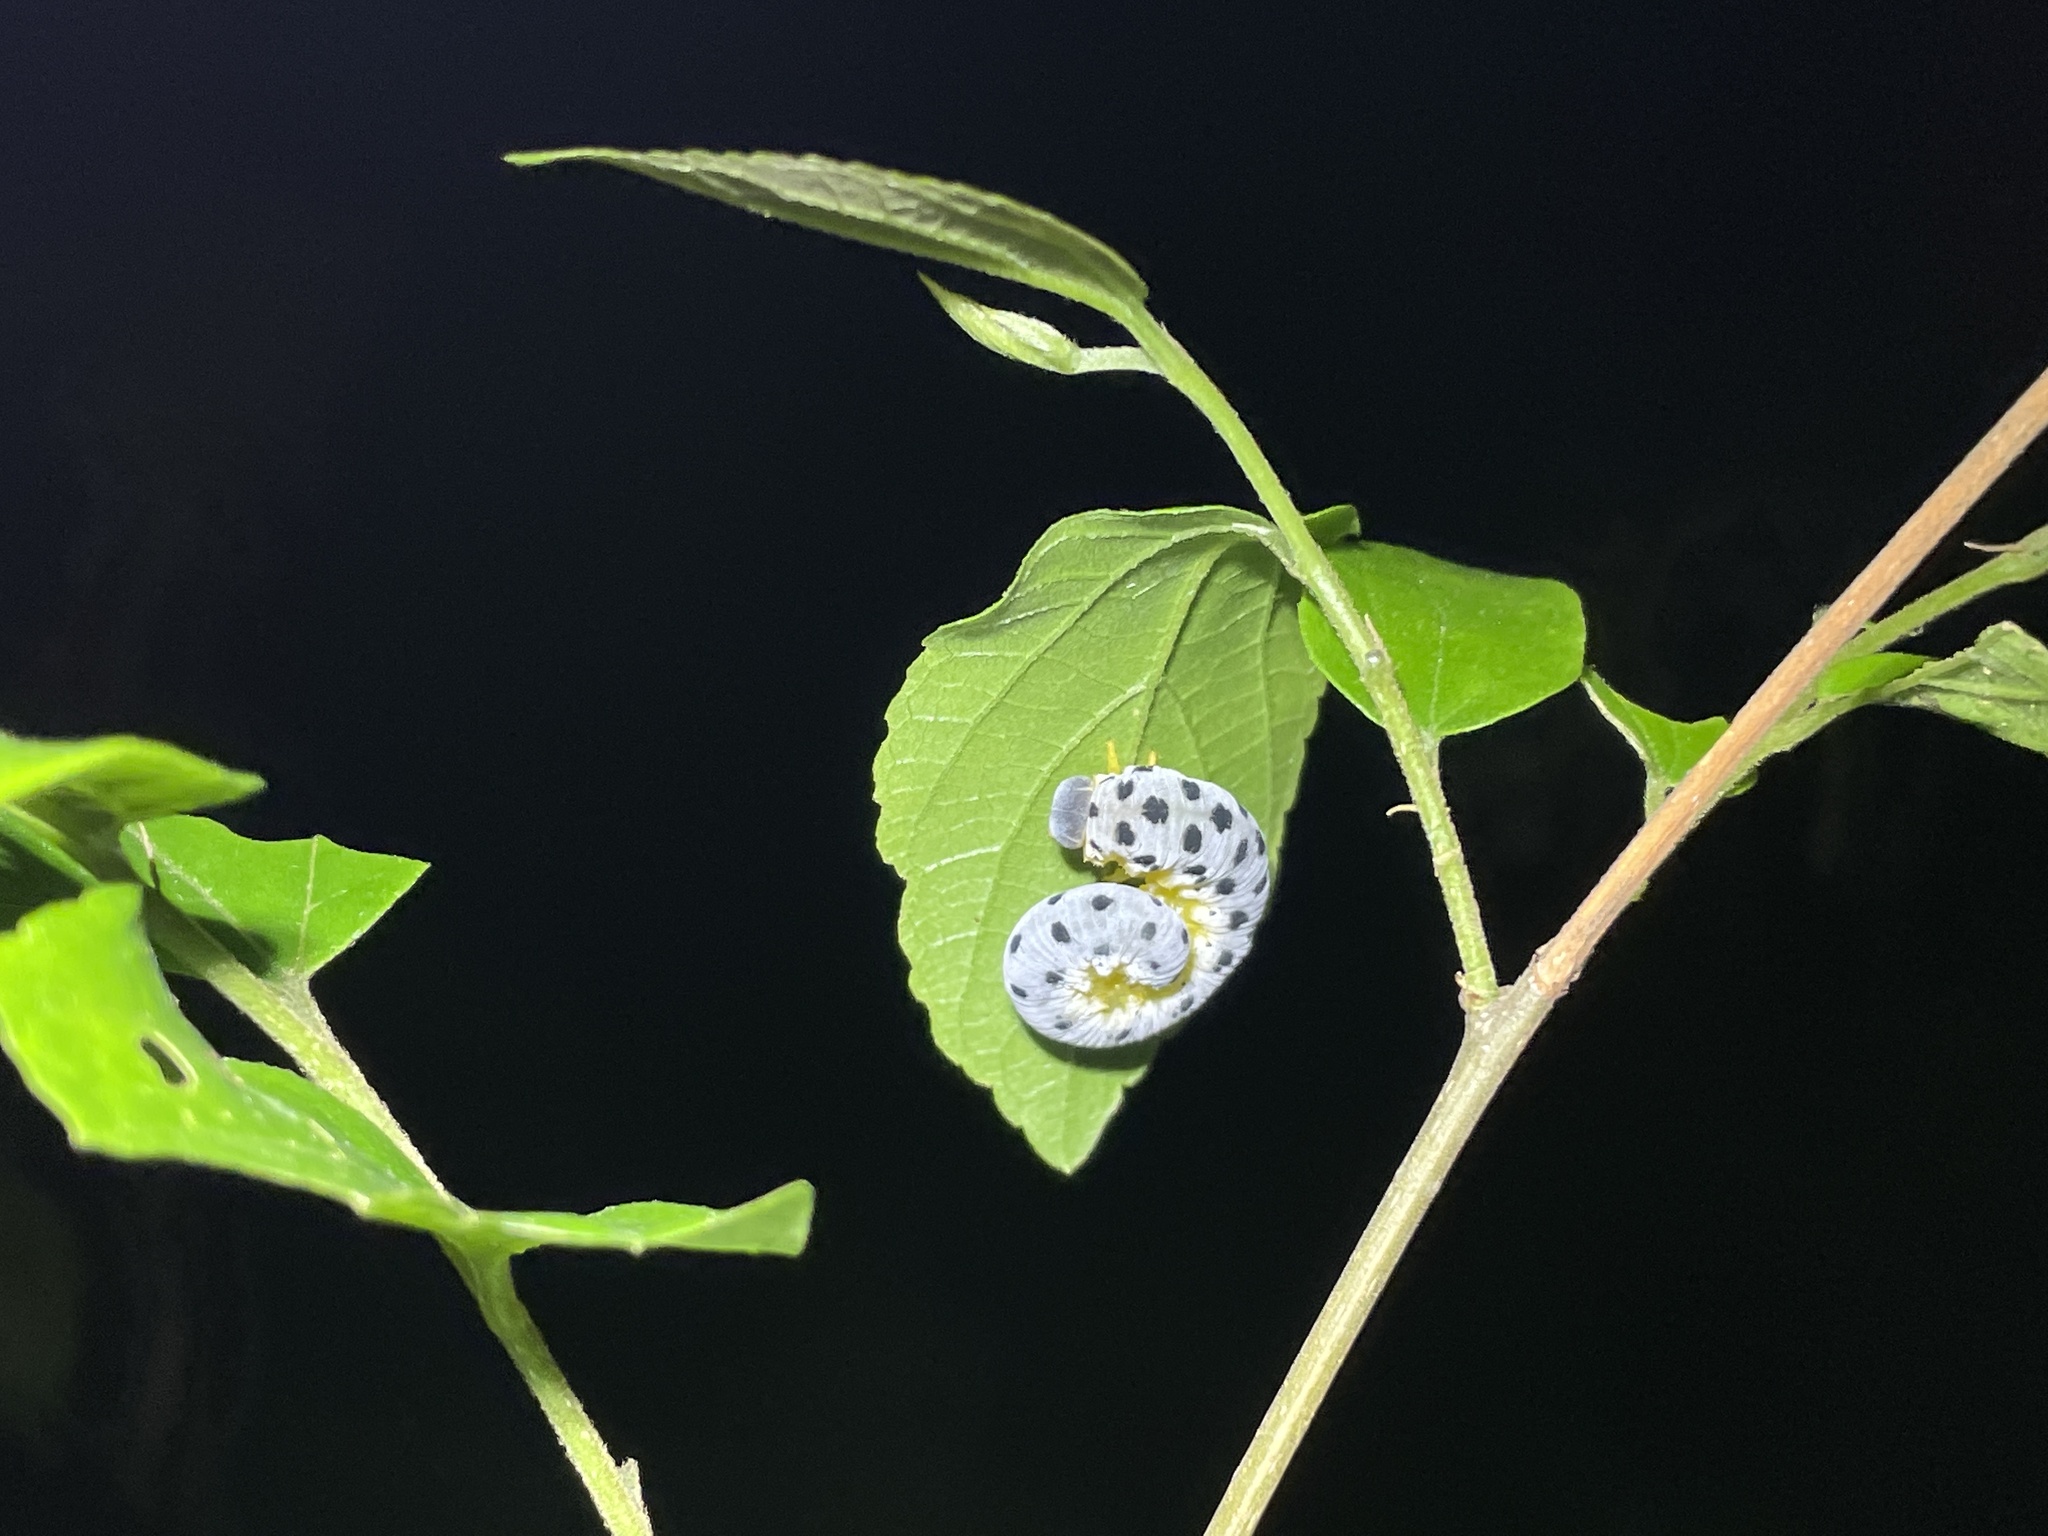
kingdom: Animalia
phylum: Arthropoda
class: Insecta
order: Hymenoptera
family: Cimbicidae
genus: Agenocimbex
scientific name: Agenocimbex
